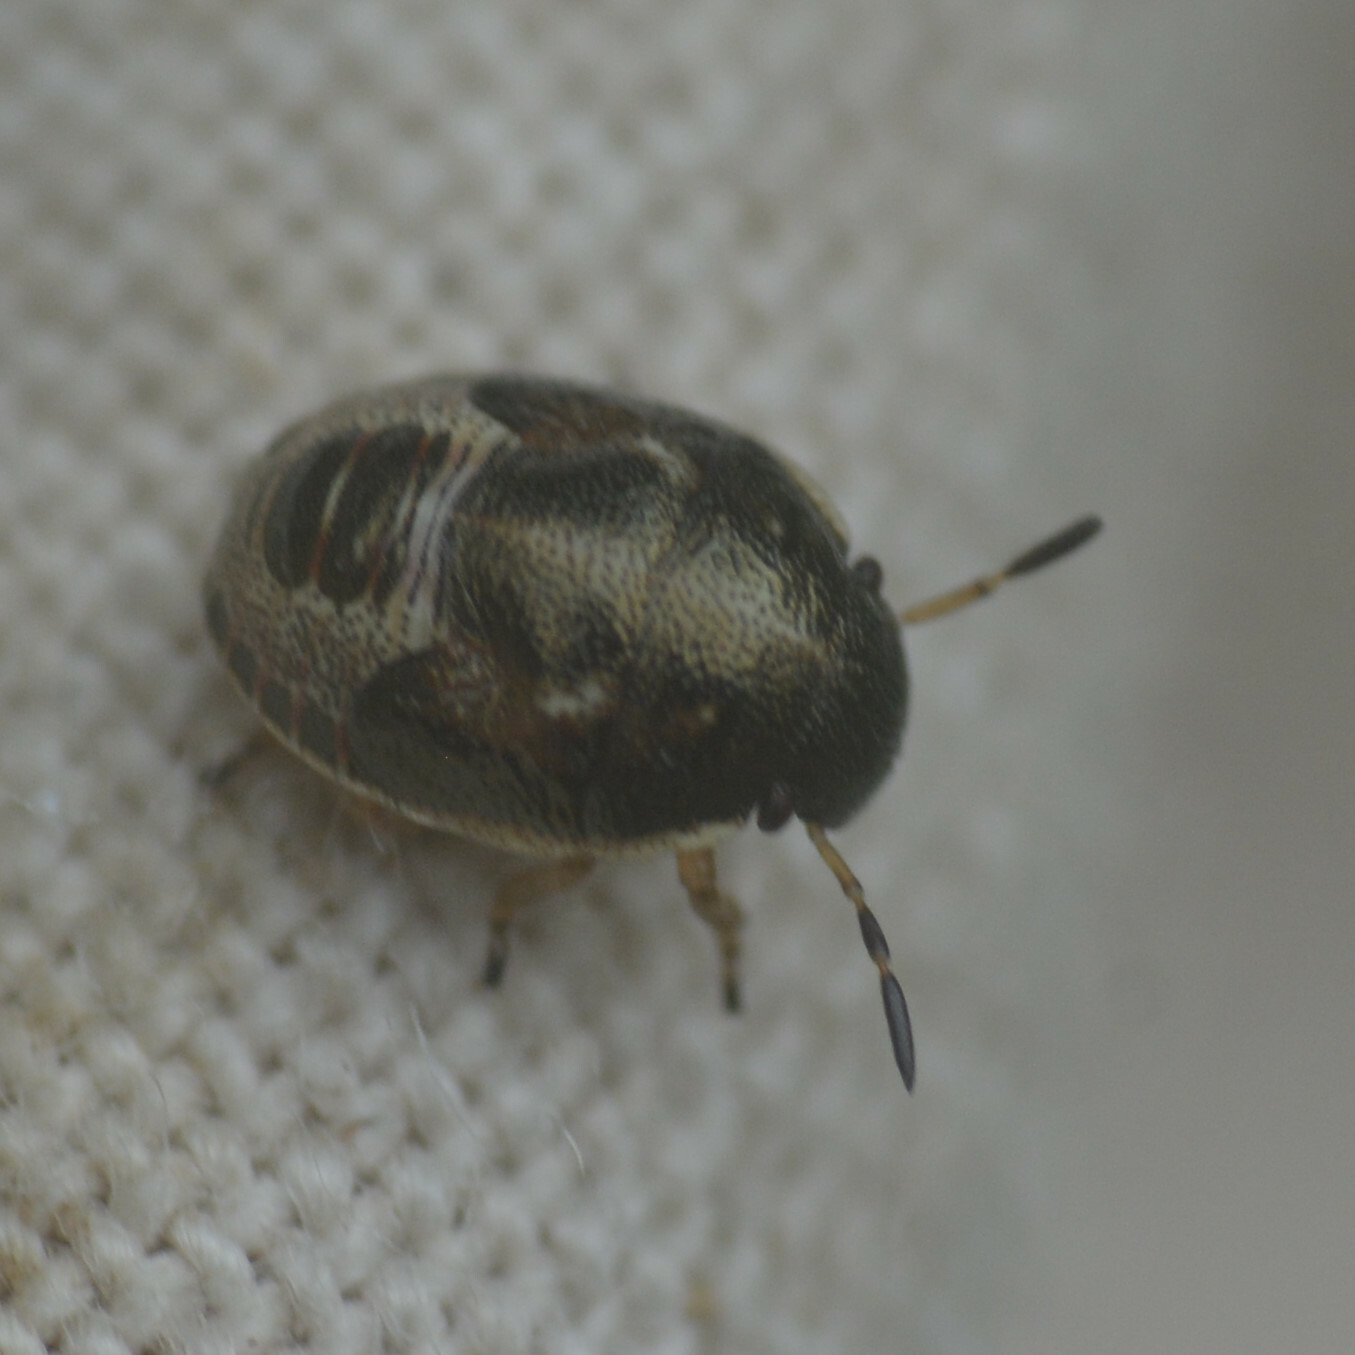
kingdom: Animalia
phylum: Arthropoda
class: Insecta
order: Hemiptera
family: Pentatomidae
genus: Neottiglossa
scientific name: Neottiglossa pusilla
